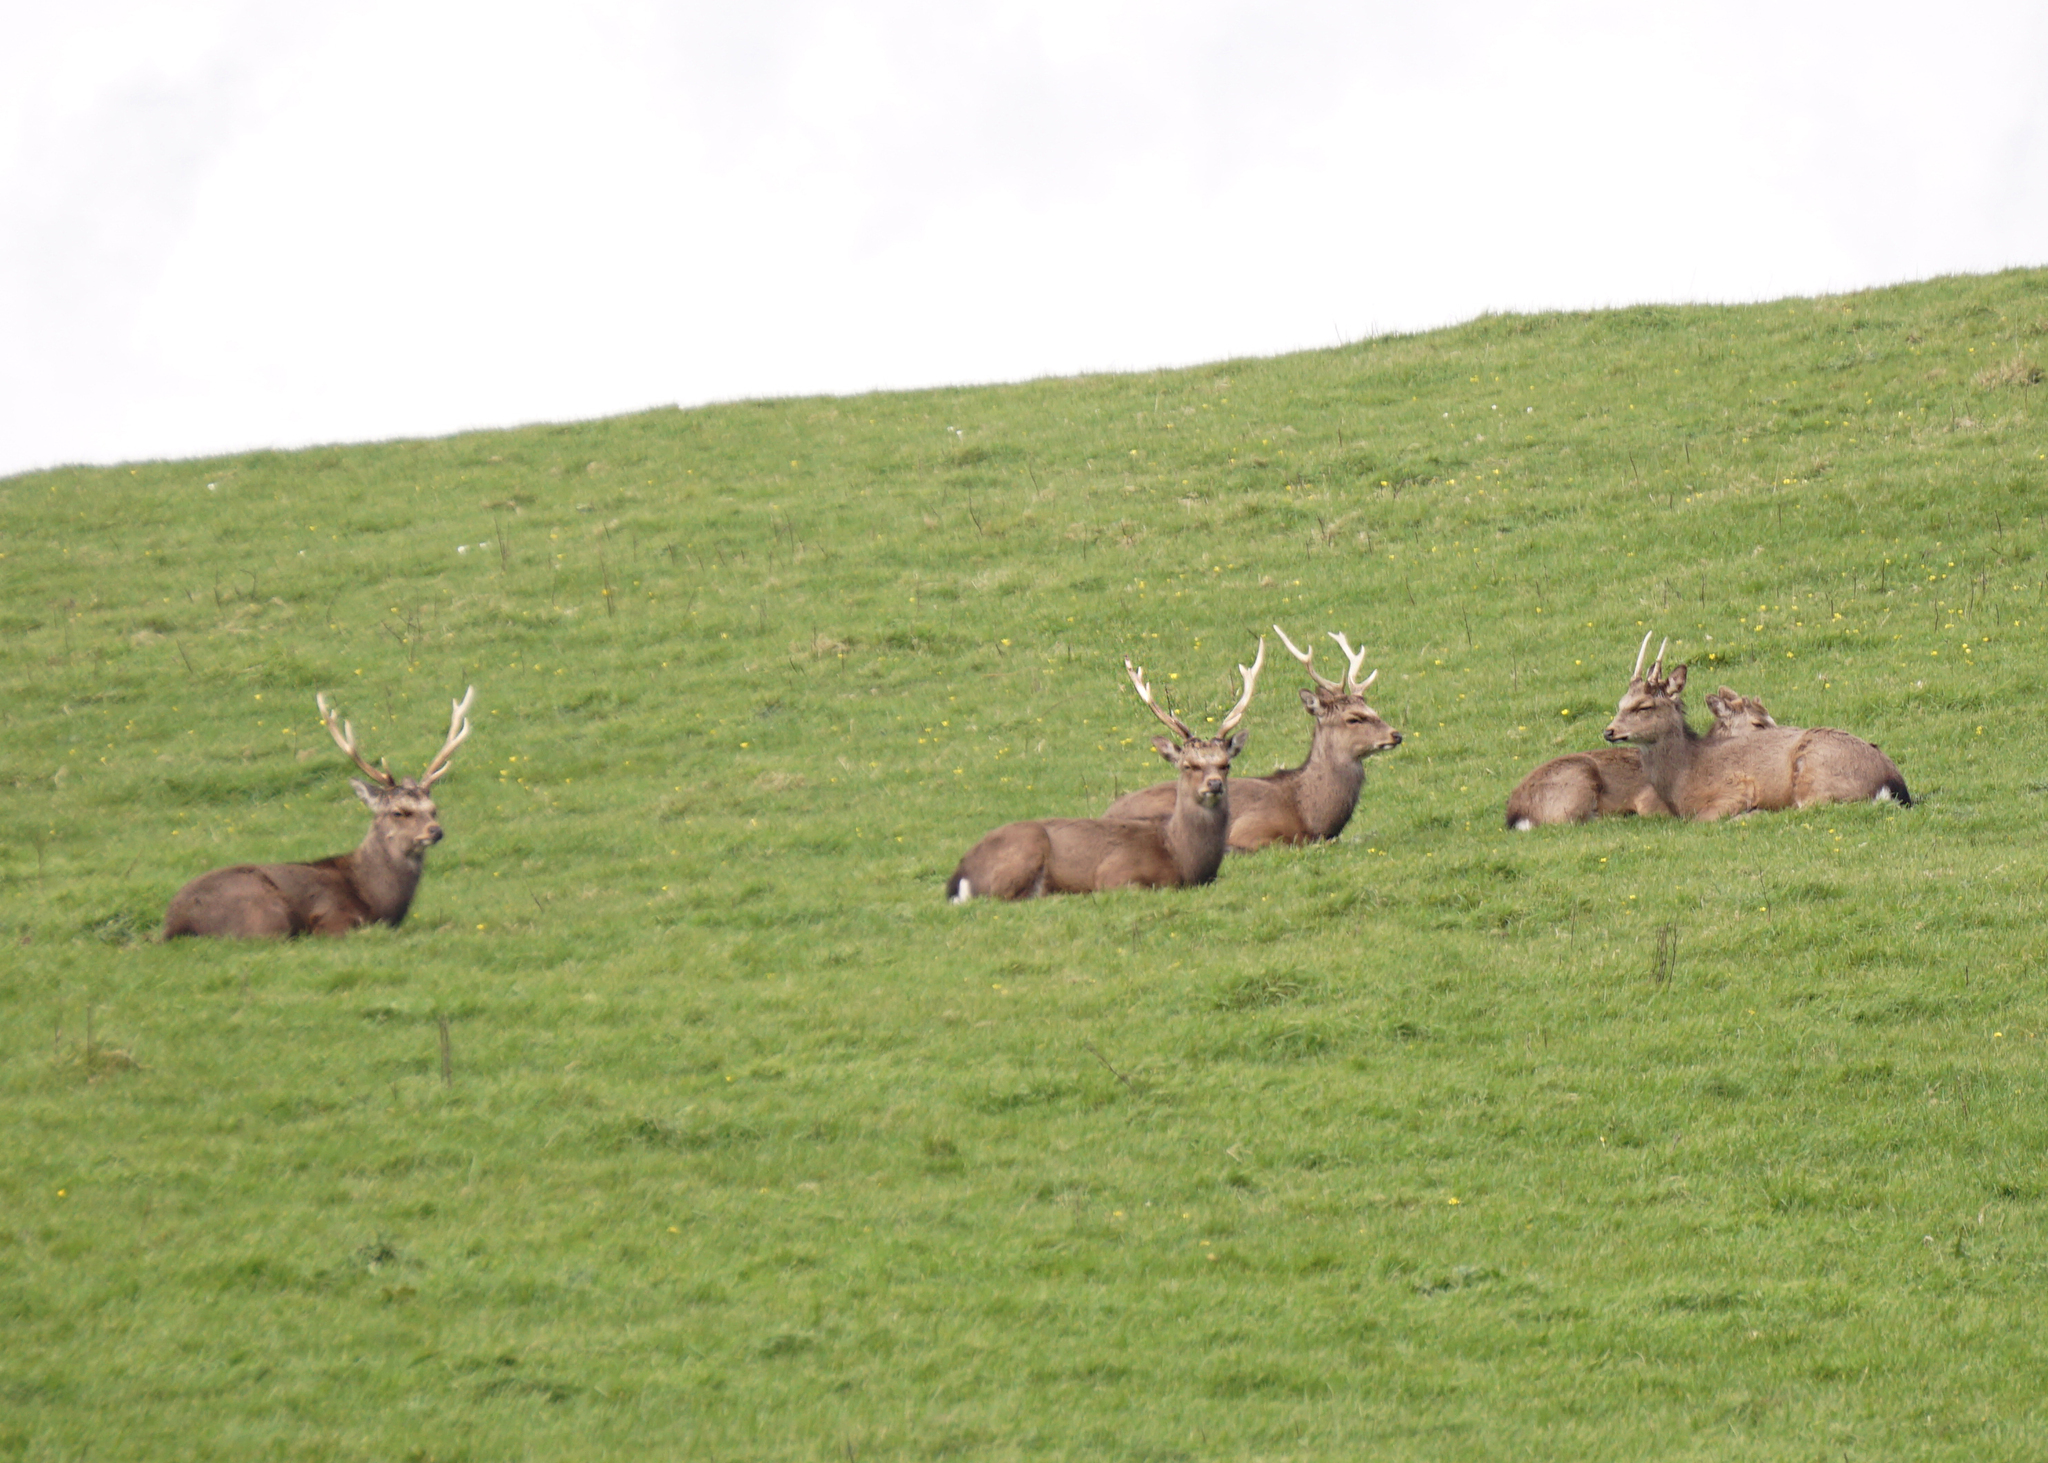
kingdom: Animalia
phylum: Chordata
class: Mammalia
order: Artiodactyla
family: Cervidae
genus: Cervus
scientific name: Cervus nippon
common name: Sika deer
